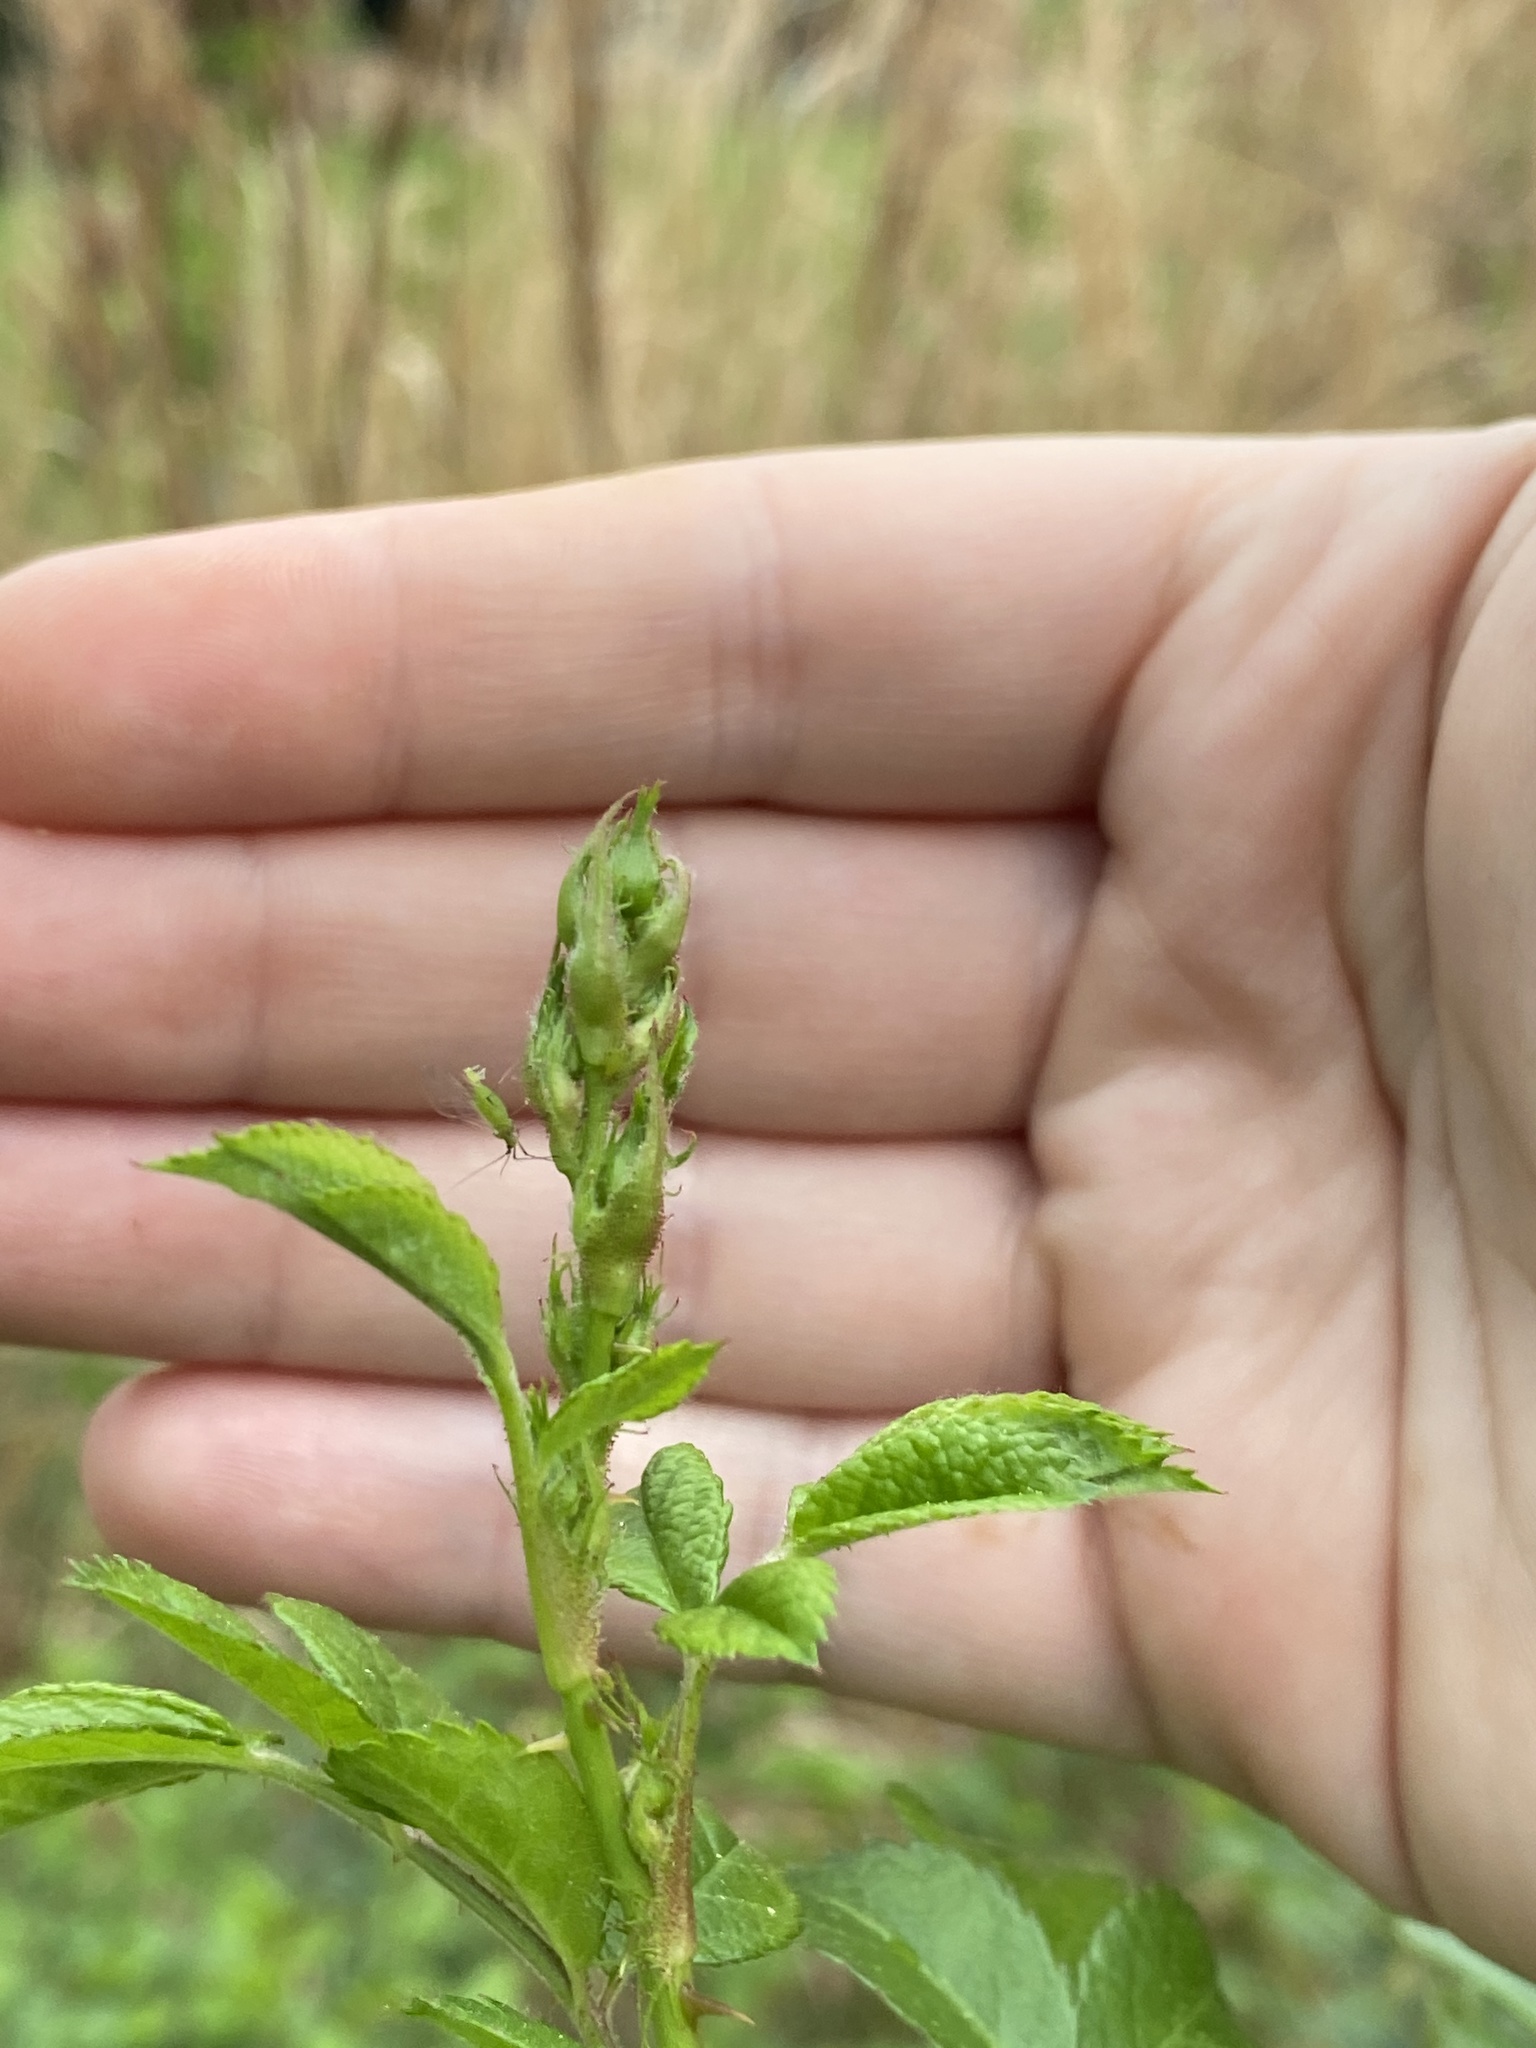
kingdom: Plantae
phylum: Tracheophyta
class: Magnoliopsida
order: Rosales
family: Rosaceae
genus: Rosa
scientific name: Rosa multiflora
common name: Multiflora rose
